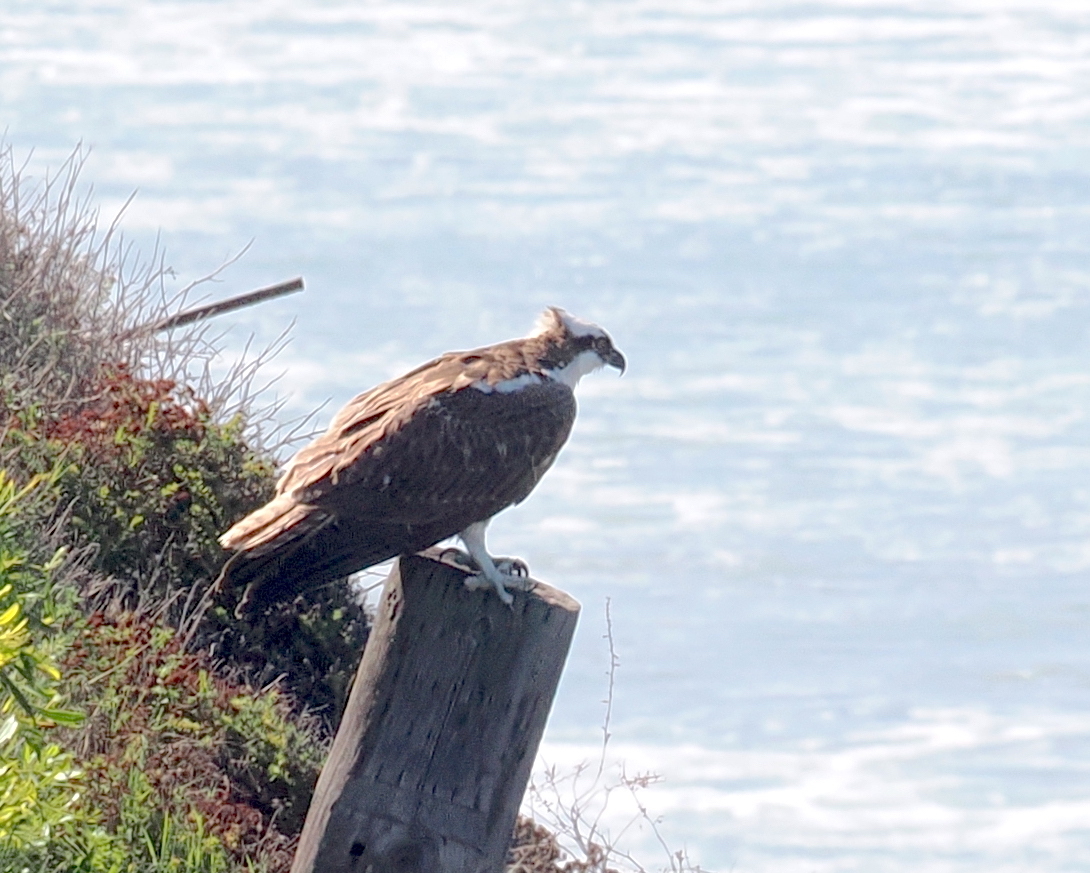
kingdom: Animalia
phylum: Chordata
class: Aves
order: Accipitriformes
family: Pandionidae
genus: Pandion
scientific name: Pandion haliaetus
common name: Osprey
